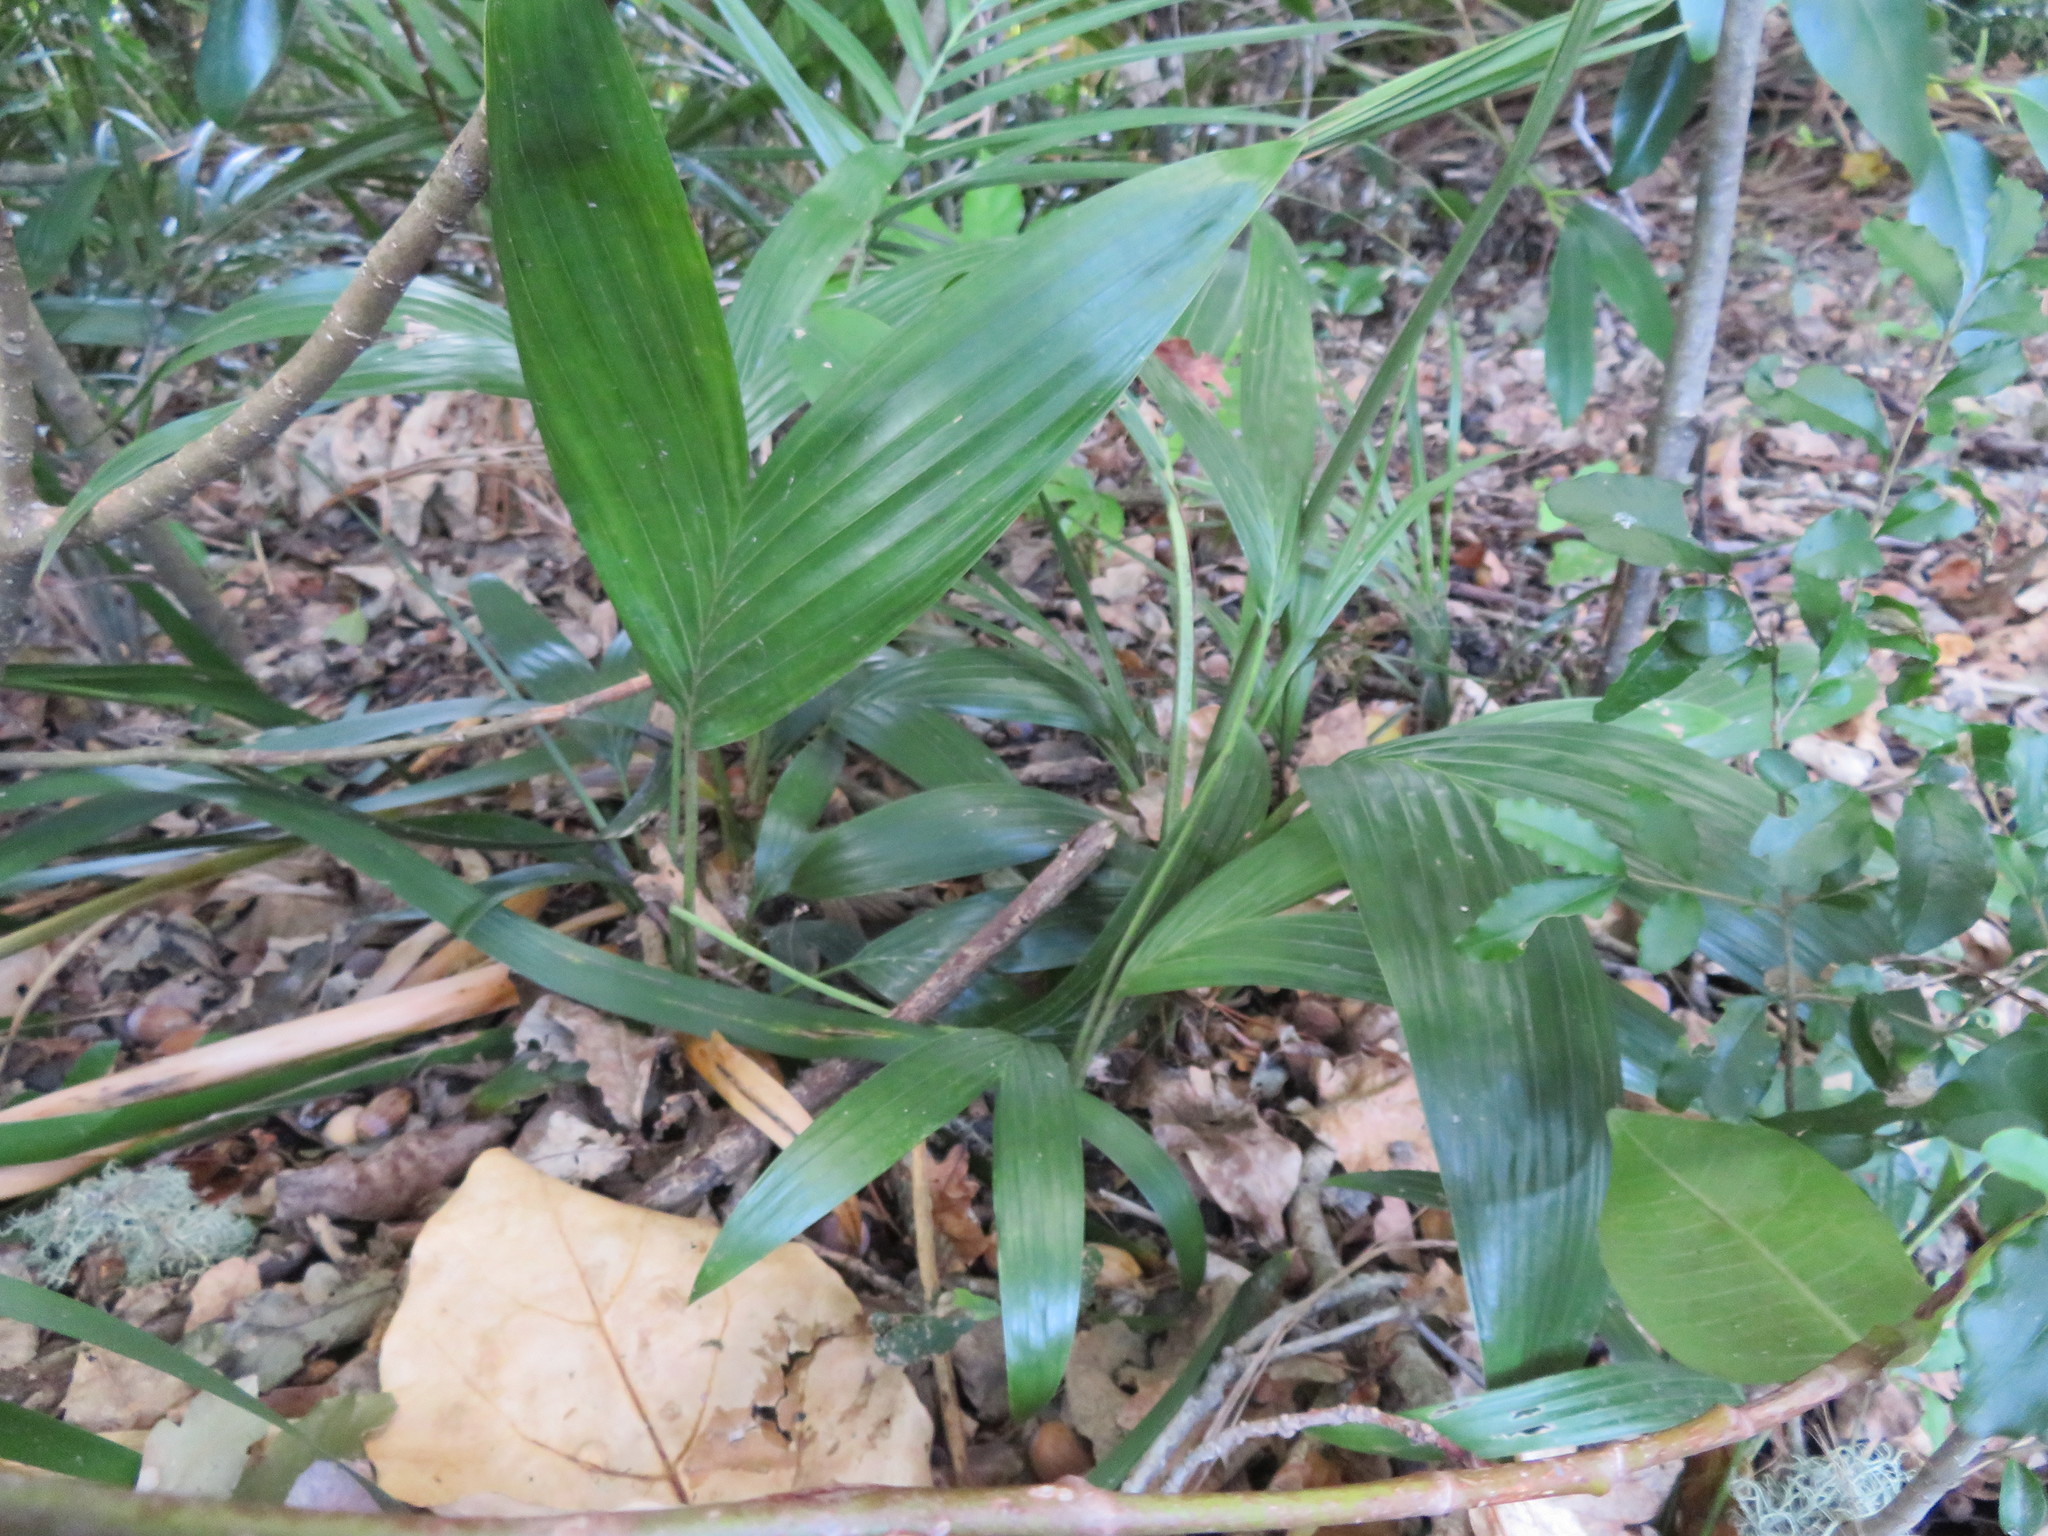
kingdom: Plantae
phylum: Tracheophyta
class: Liliopsida
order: Arecales
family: Arecaceae
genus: Archontophoenix
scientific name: Archontophoenix cunninghamiana
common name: Piccabeen bangalow palm
